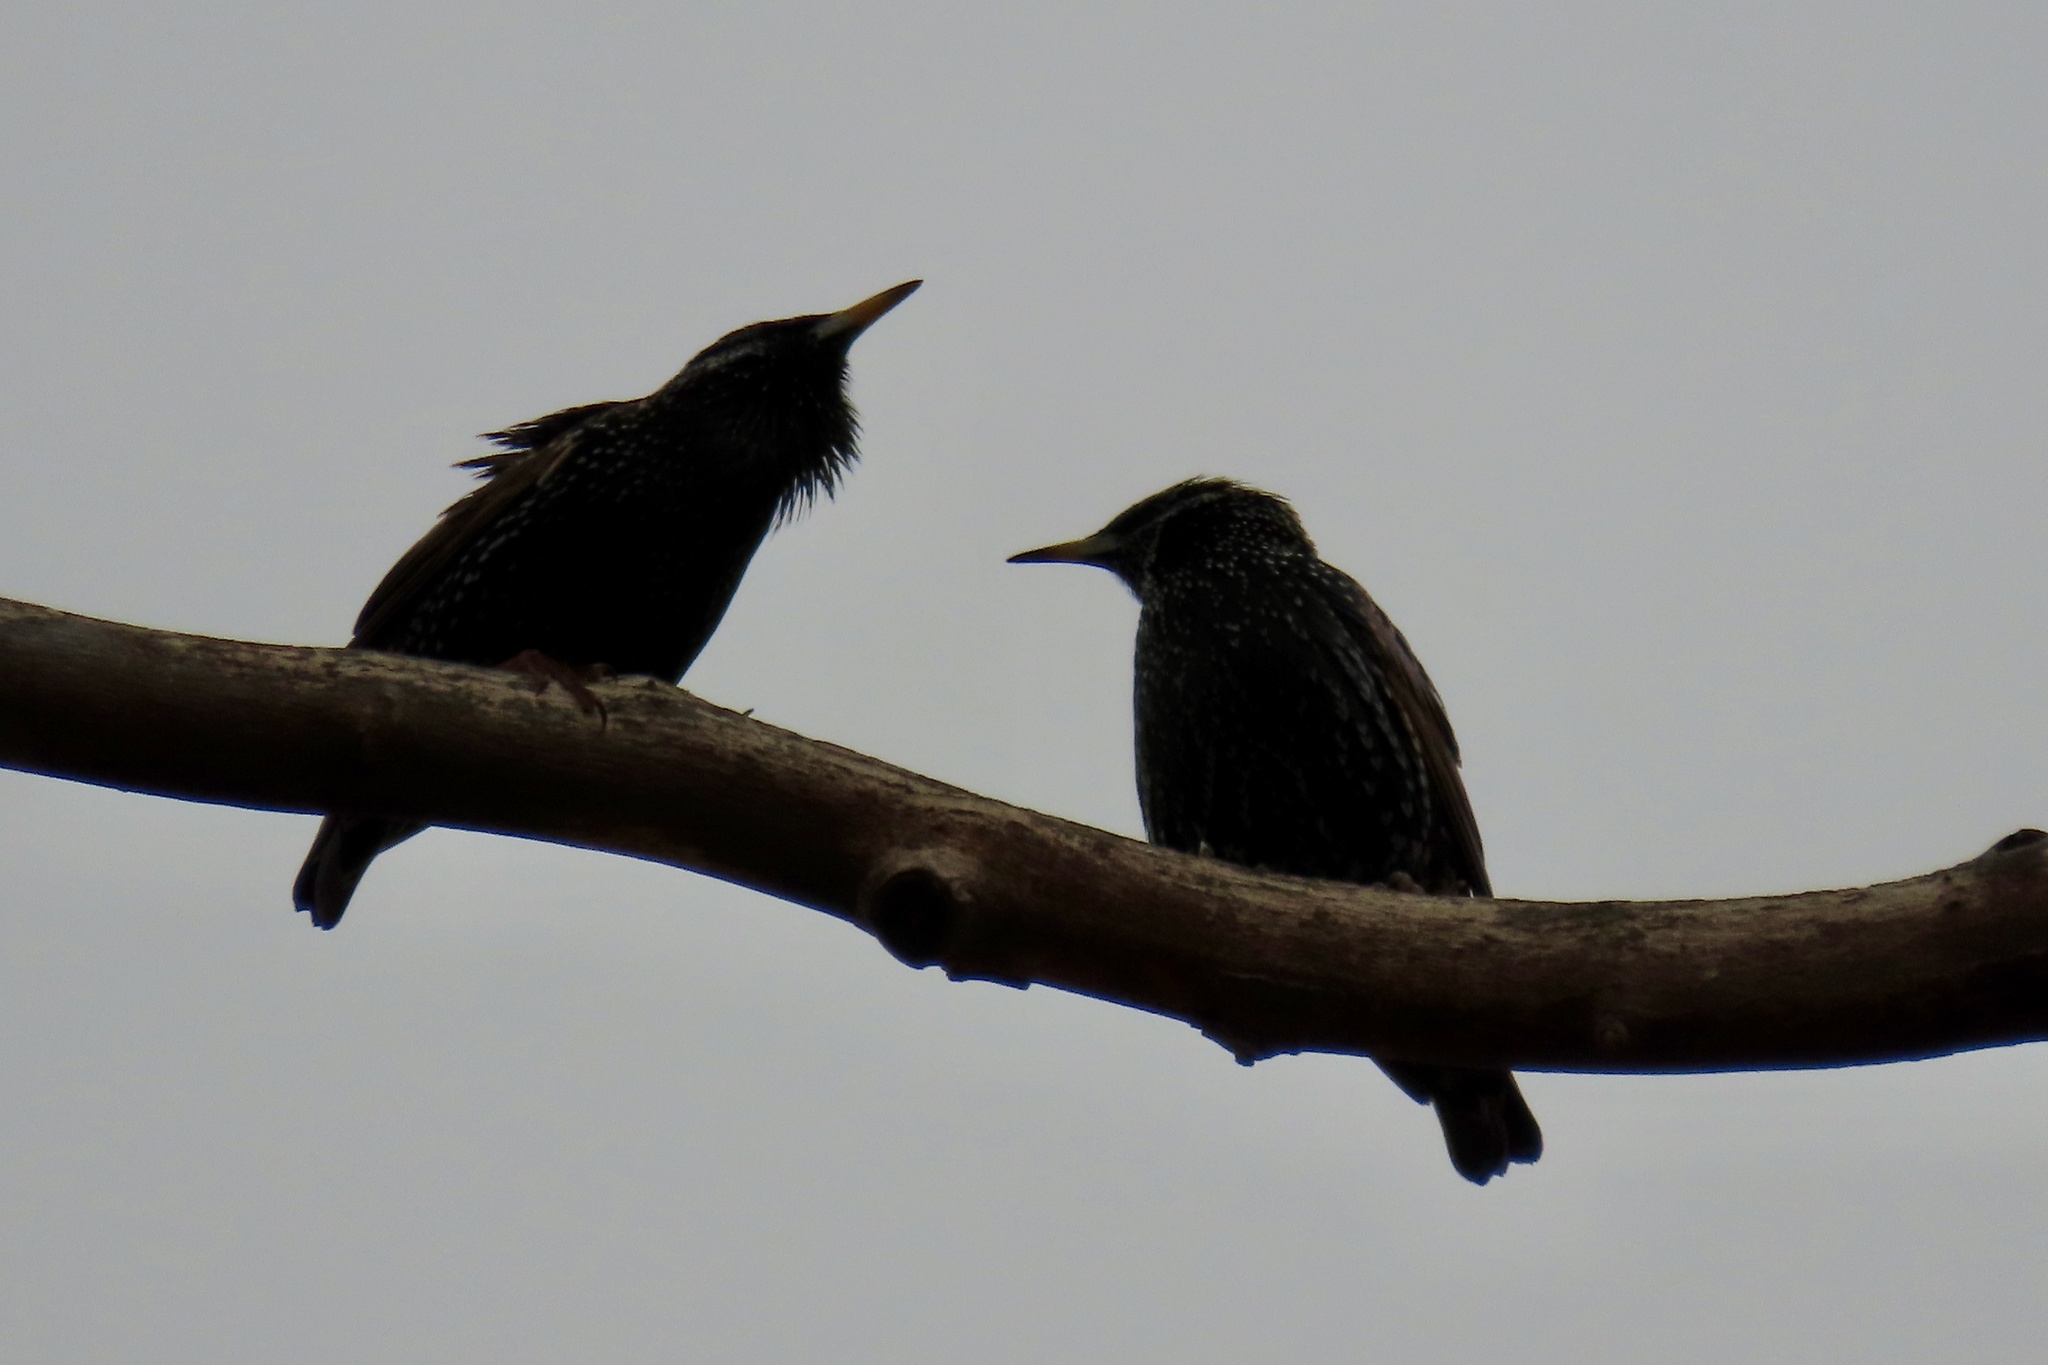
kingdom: Animalia
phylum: Chordata
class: Aves
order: Passeriformes
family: Sturnidae
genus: Sturnus
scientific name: Sturnus vulgaris
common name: Common starling
